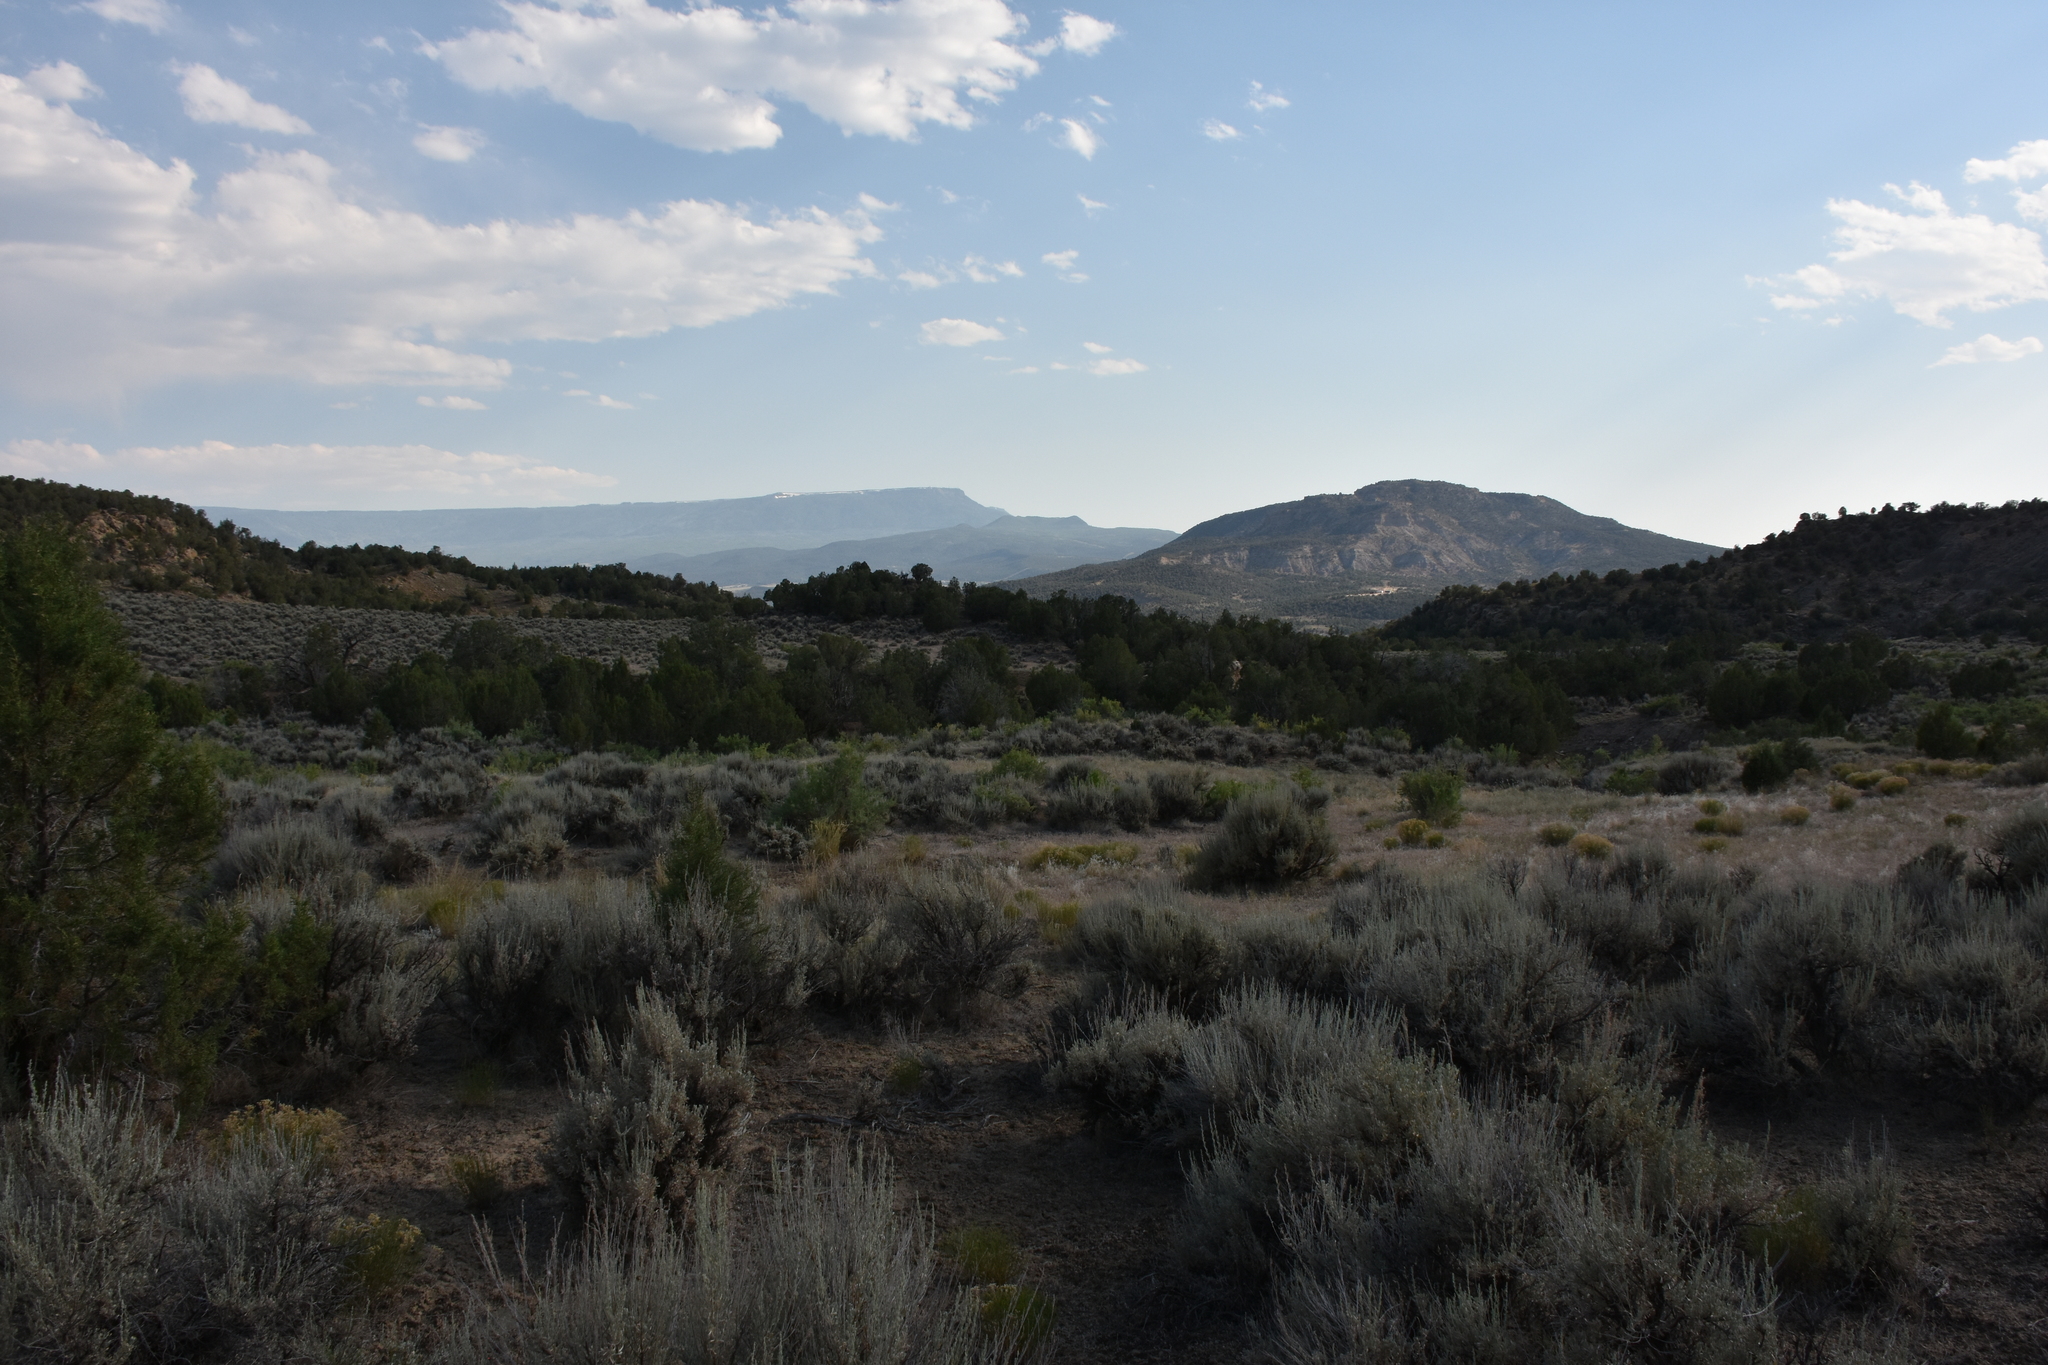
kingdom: Plantae
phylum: Tracheophyta
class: Magnoliopsida
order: Asterales
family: Asteraceae
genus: Artemisia
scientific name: Artemisia tridentata
